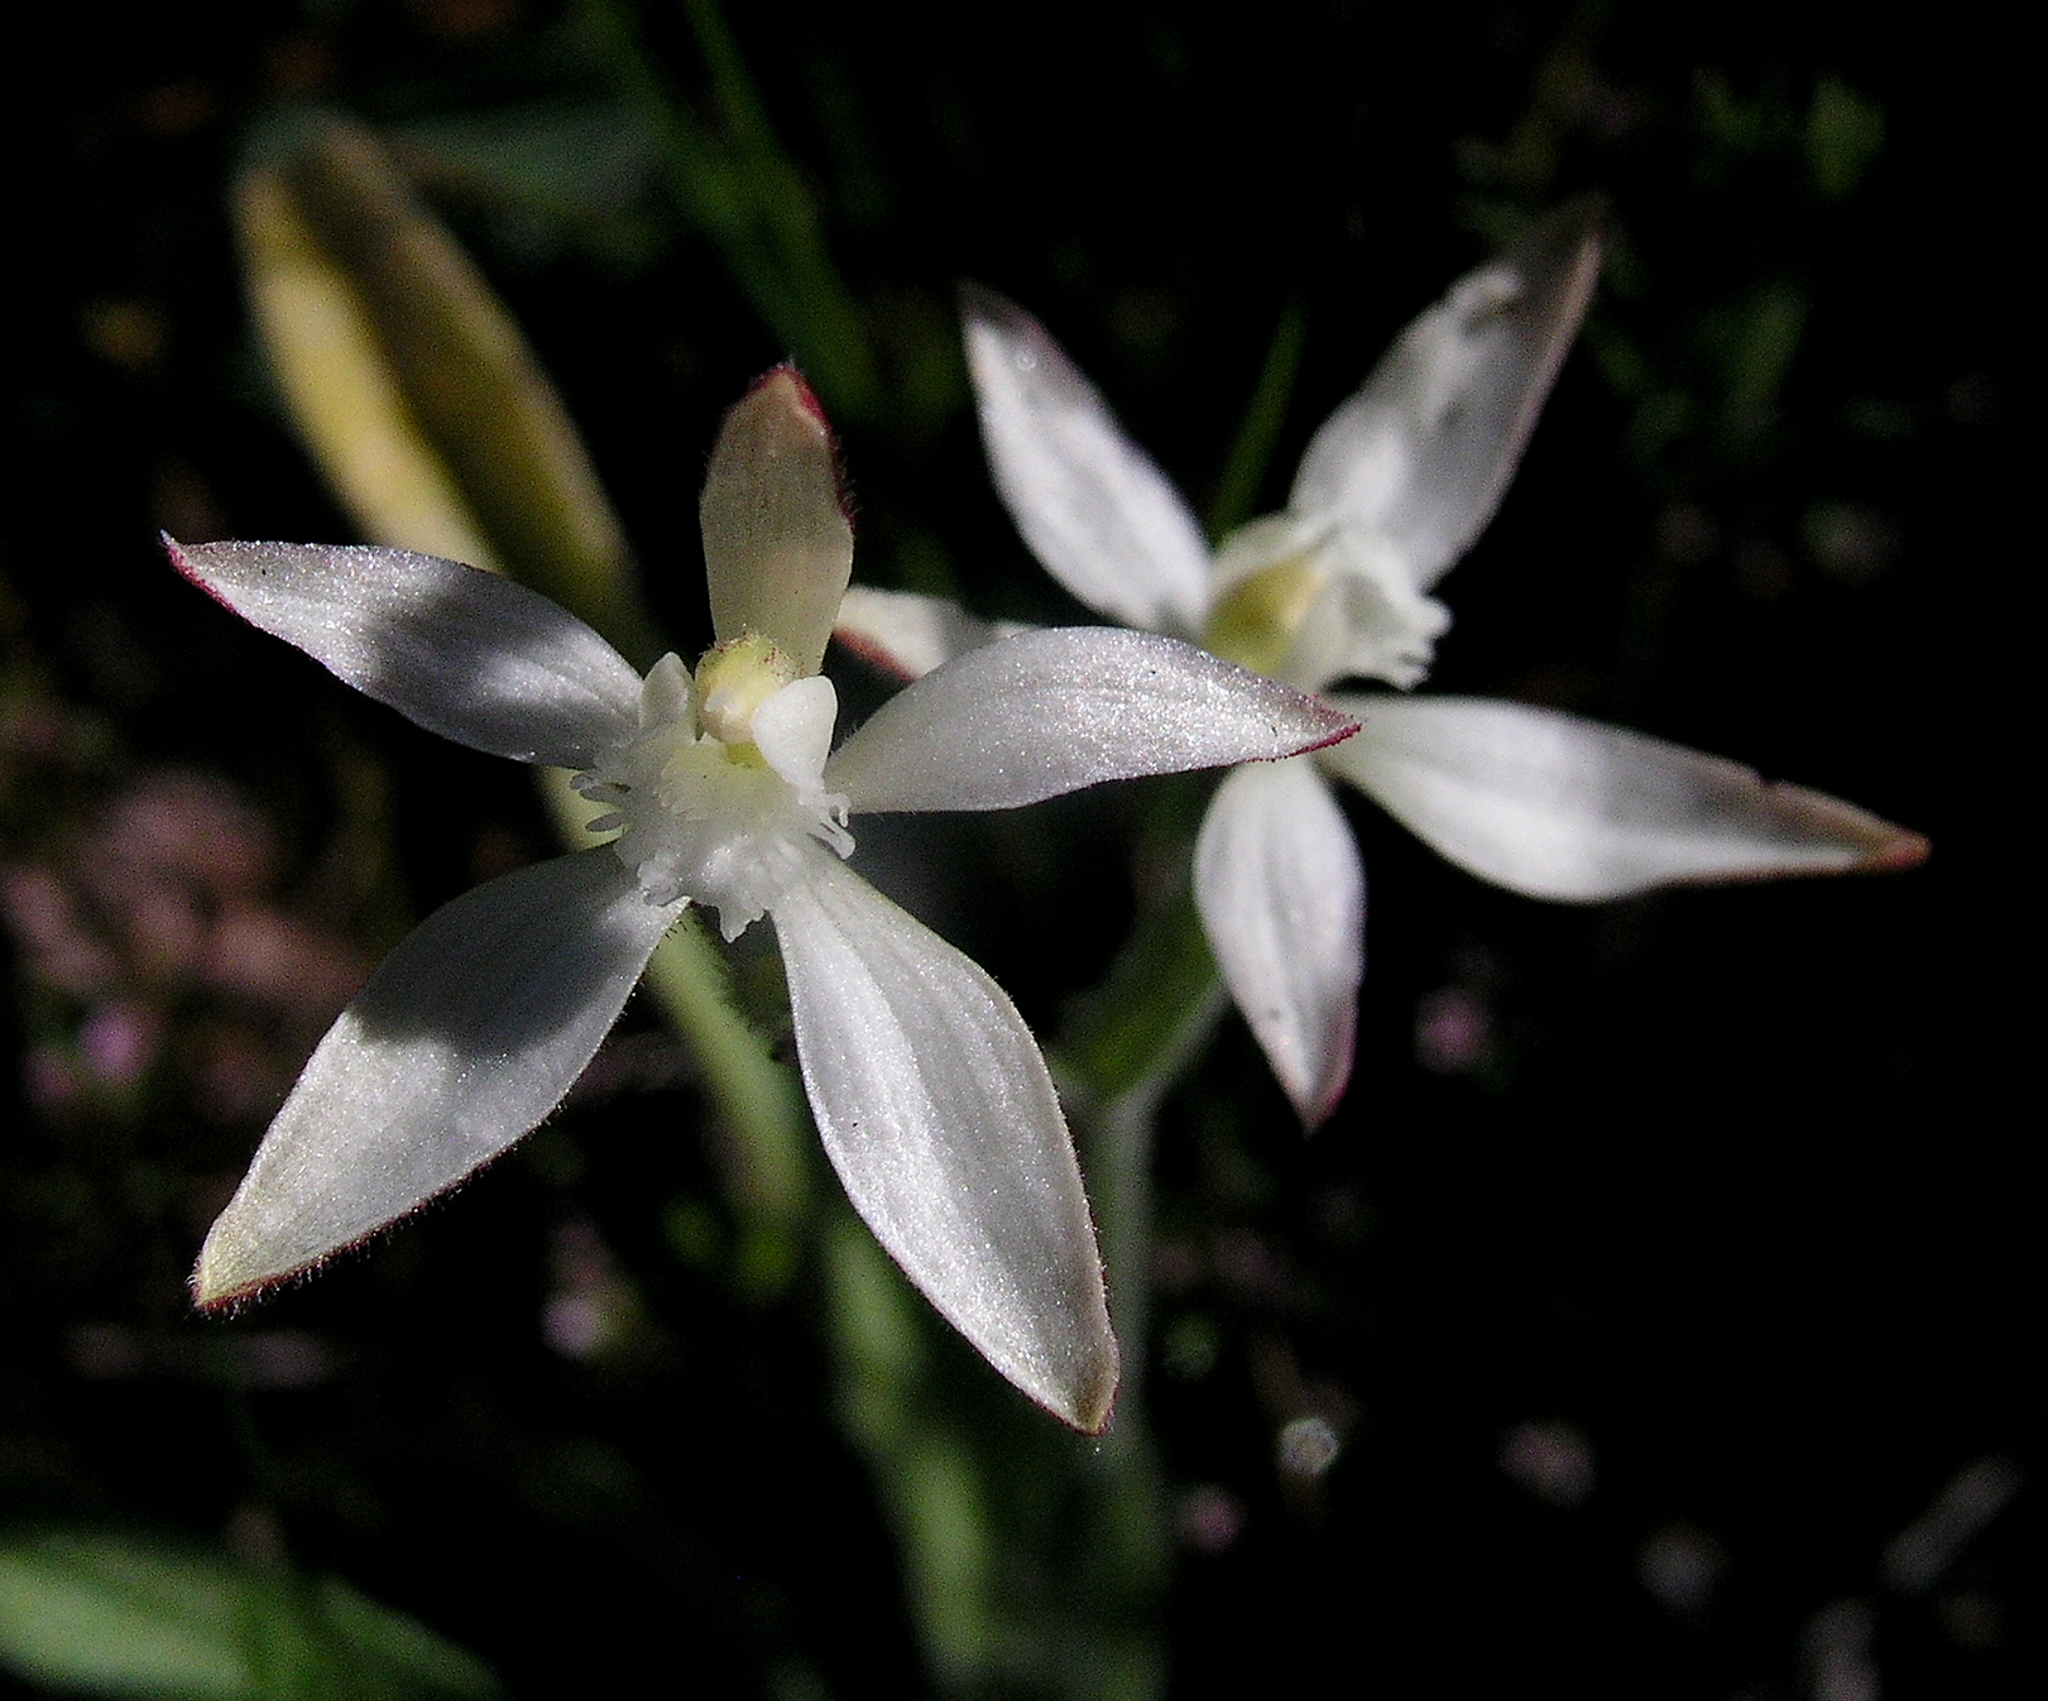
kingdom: Plantae
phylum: Tracheophyta
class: Liliopsida
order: Asparagales
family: Orchidaceae
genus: Caladenia
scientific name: Caladenia marginata
